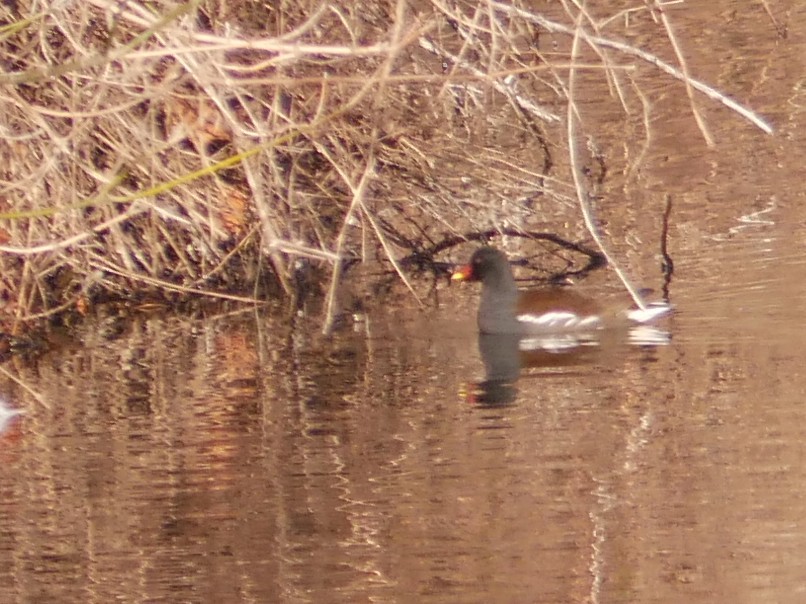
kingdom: Animalia
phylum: Chordata
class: Aves
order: Gruiformes
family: Rallidae
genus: Gallinula
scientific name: Gallinula chloropus
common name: Common moorhen
